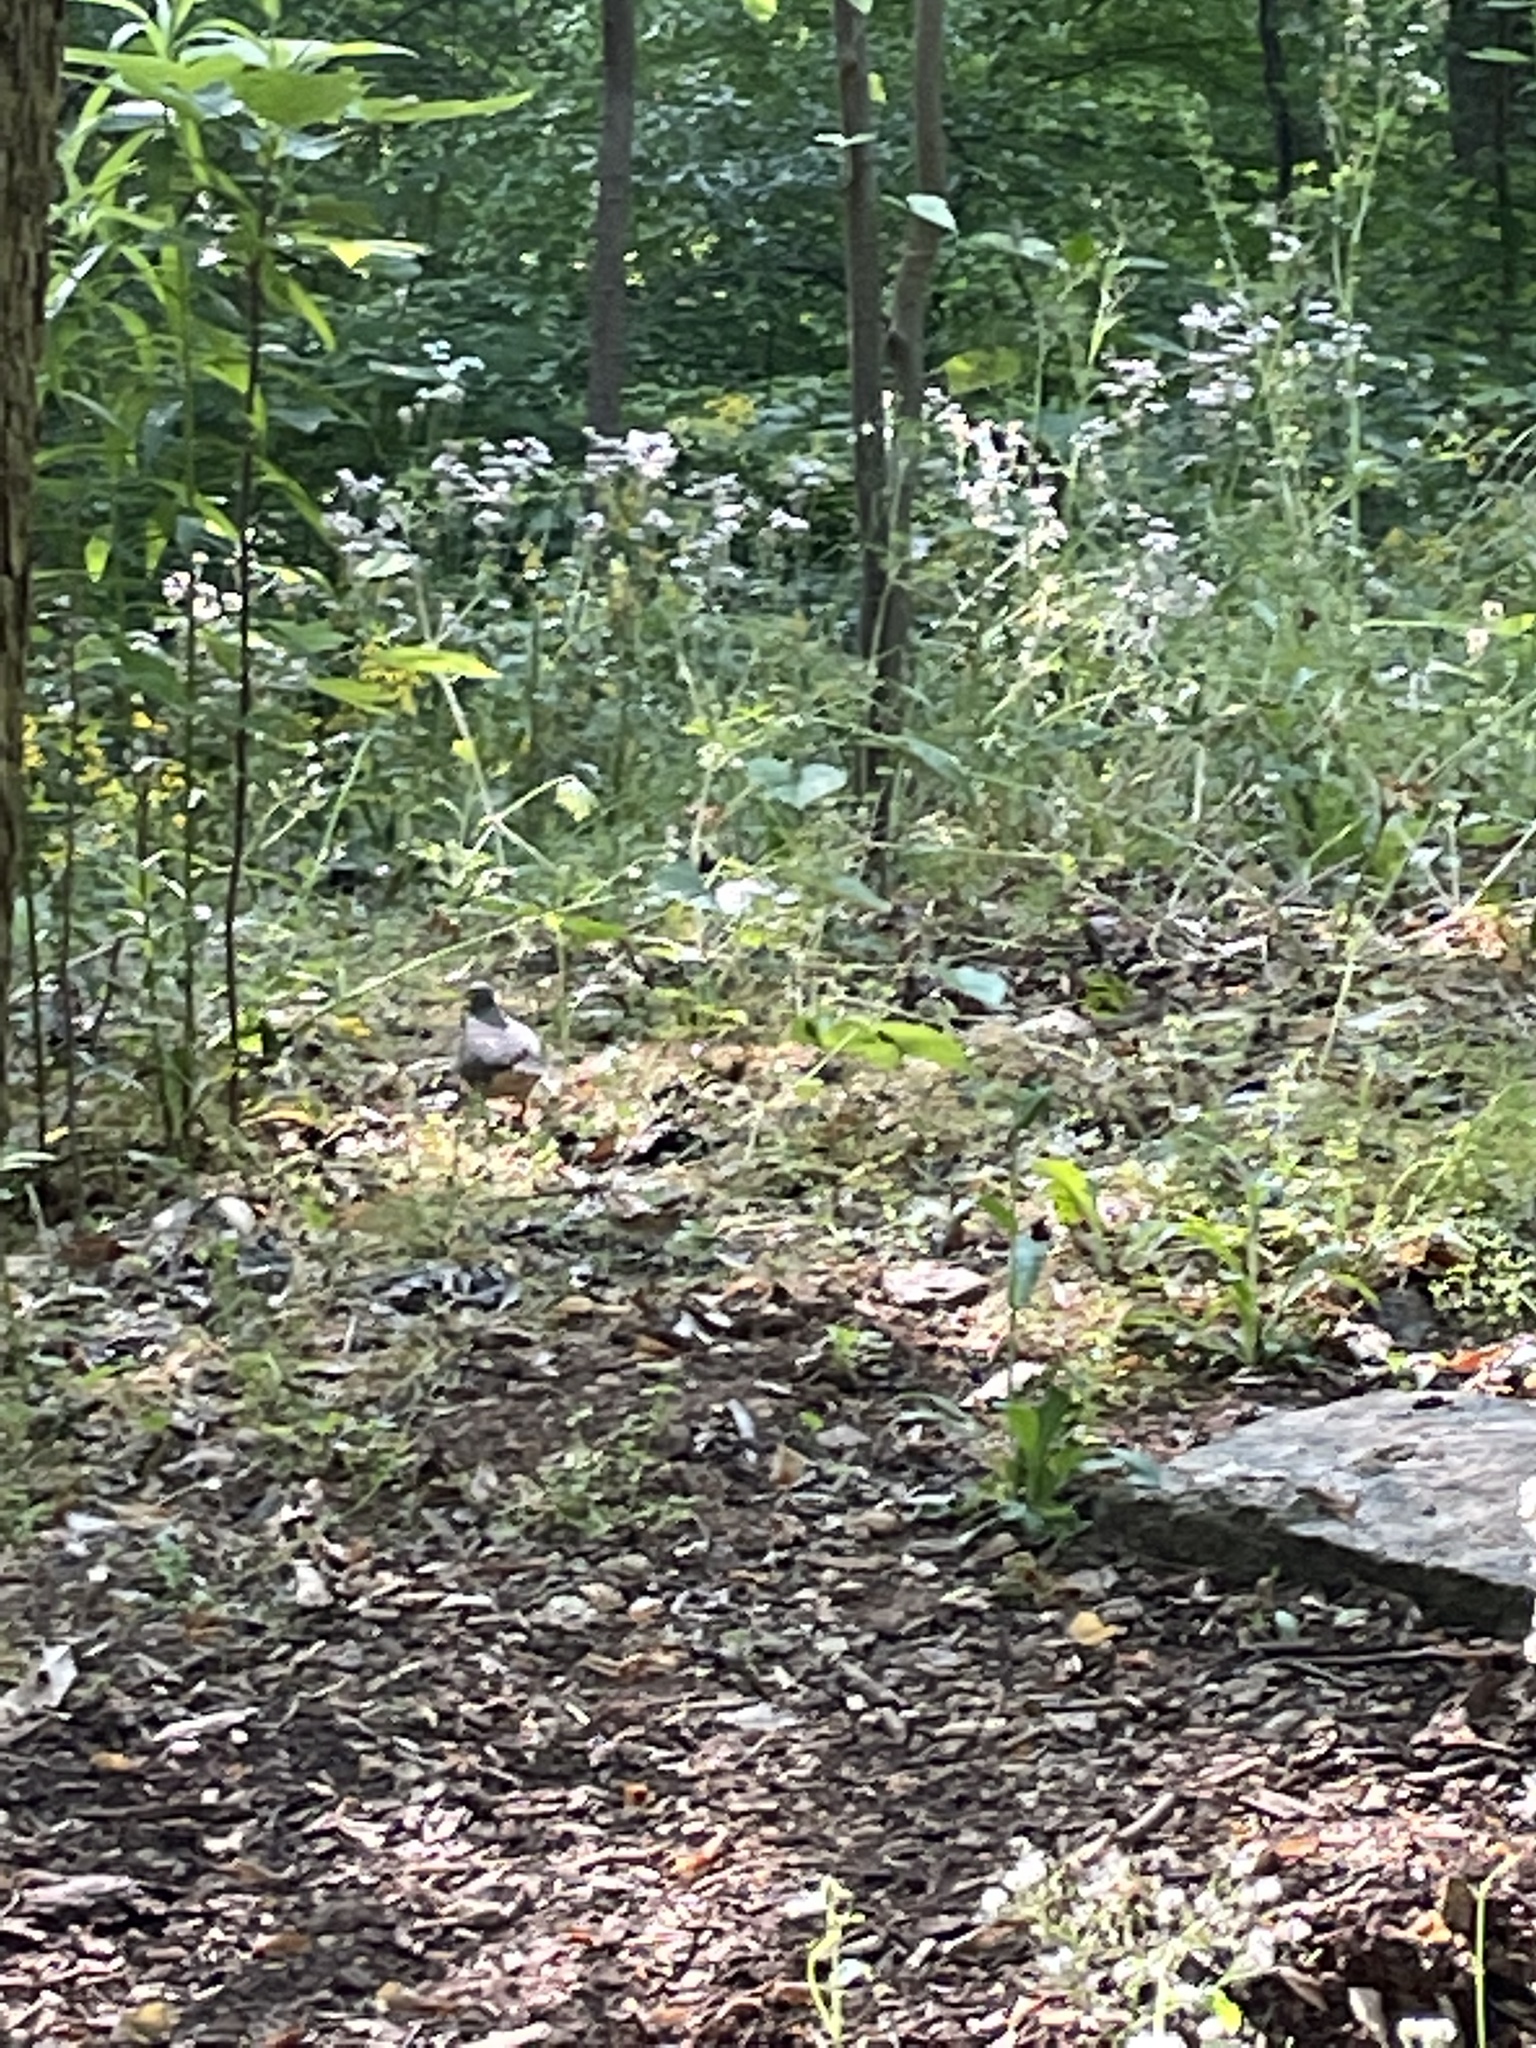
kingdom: Animalia
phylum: Chordata
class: Aves
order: Columbiformes
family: Columbidae
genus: Zenaida
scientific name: Zenaida macroura
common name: Mourning dove
